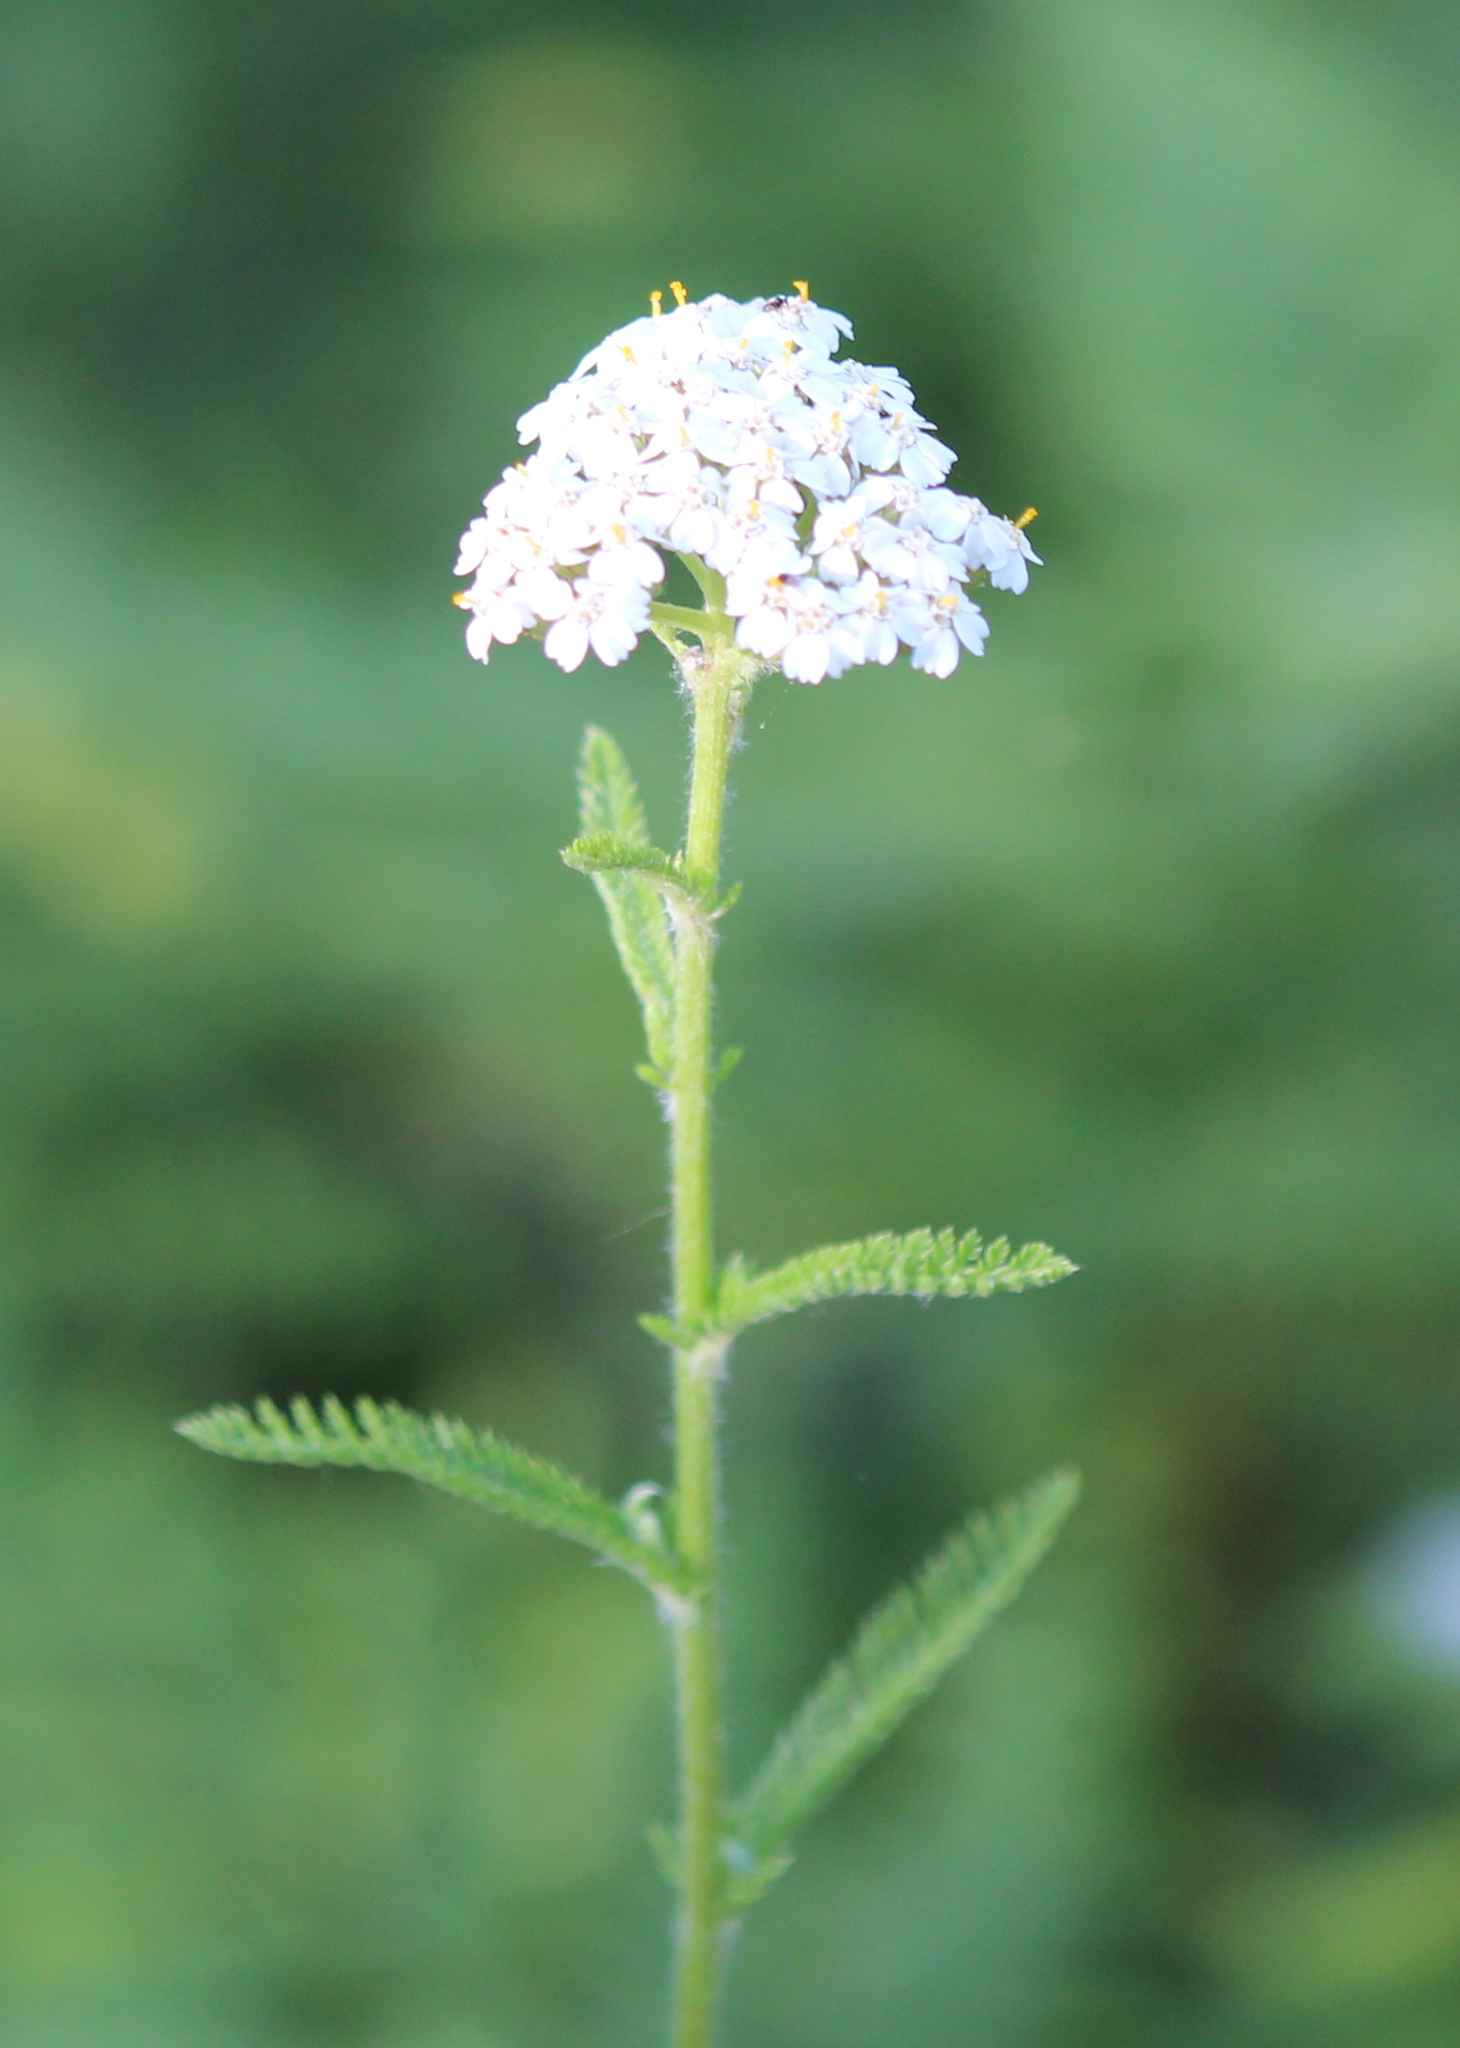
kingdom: Plantae
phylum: Tracheophyta
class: Magnoliopsida
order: Asterales
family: Asteraceae
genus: Achillea
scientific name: Achillea millefolium
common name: Yarrow
